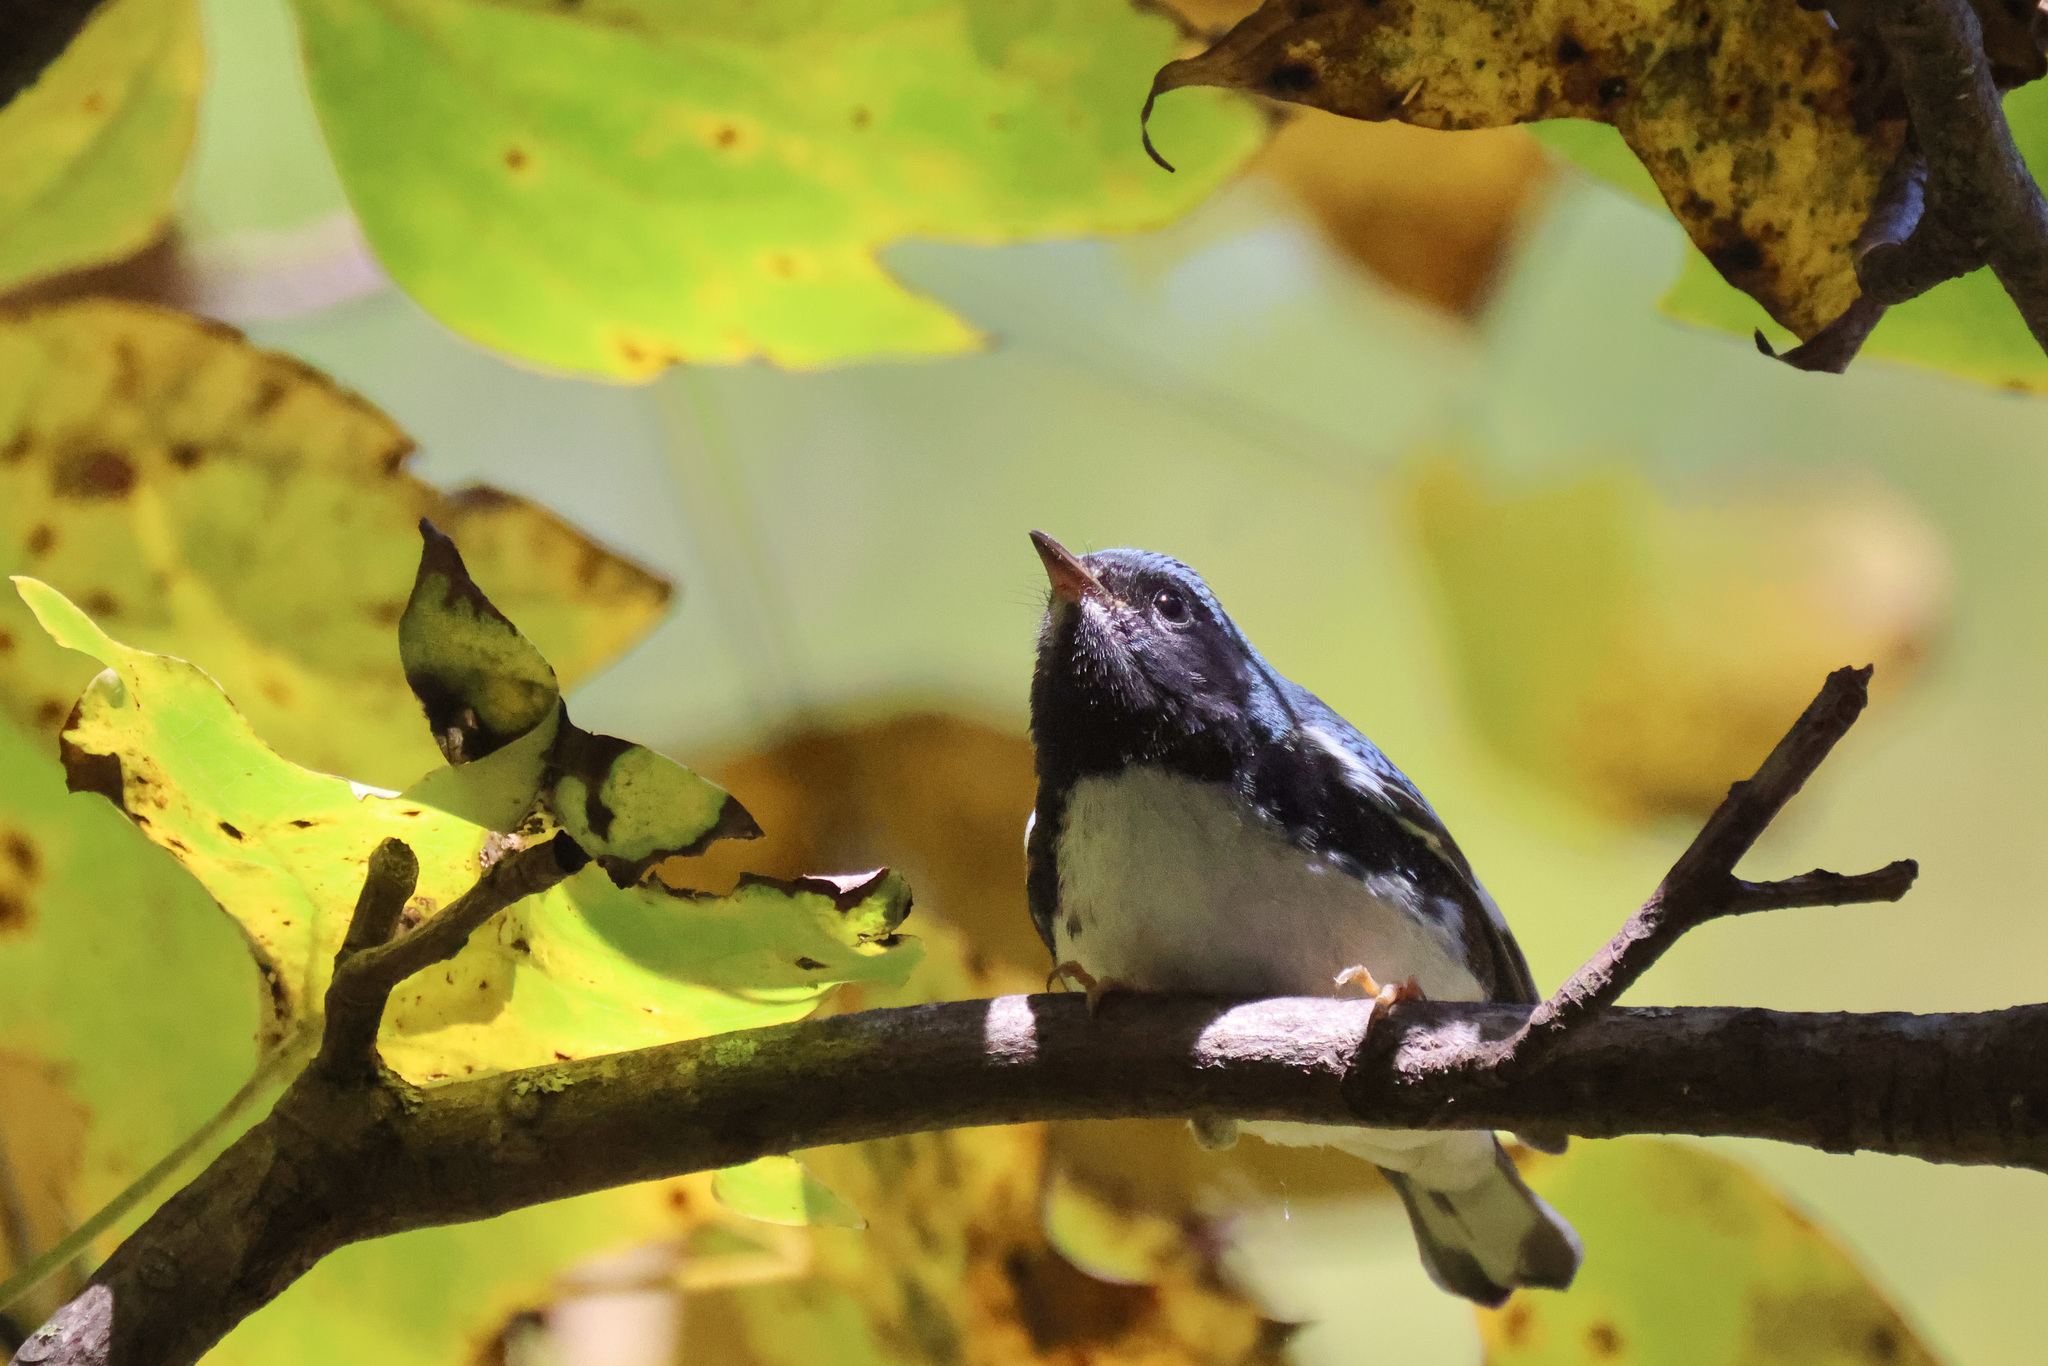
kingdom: Animalia
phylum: Chordata
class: Aves
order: Passeriformes
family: Parulidae
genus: Setophaga
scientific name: Setophaga caerulescens
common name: Black-throated blue warbler
